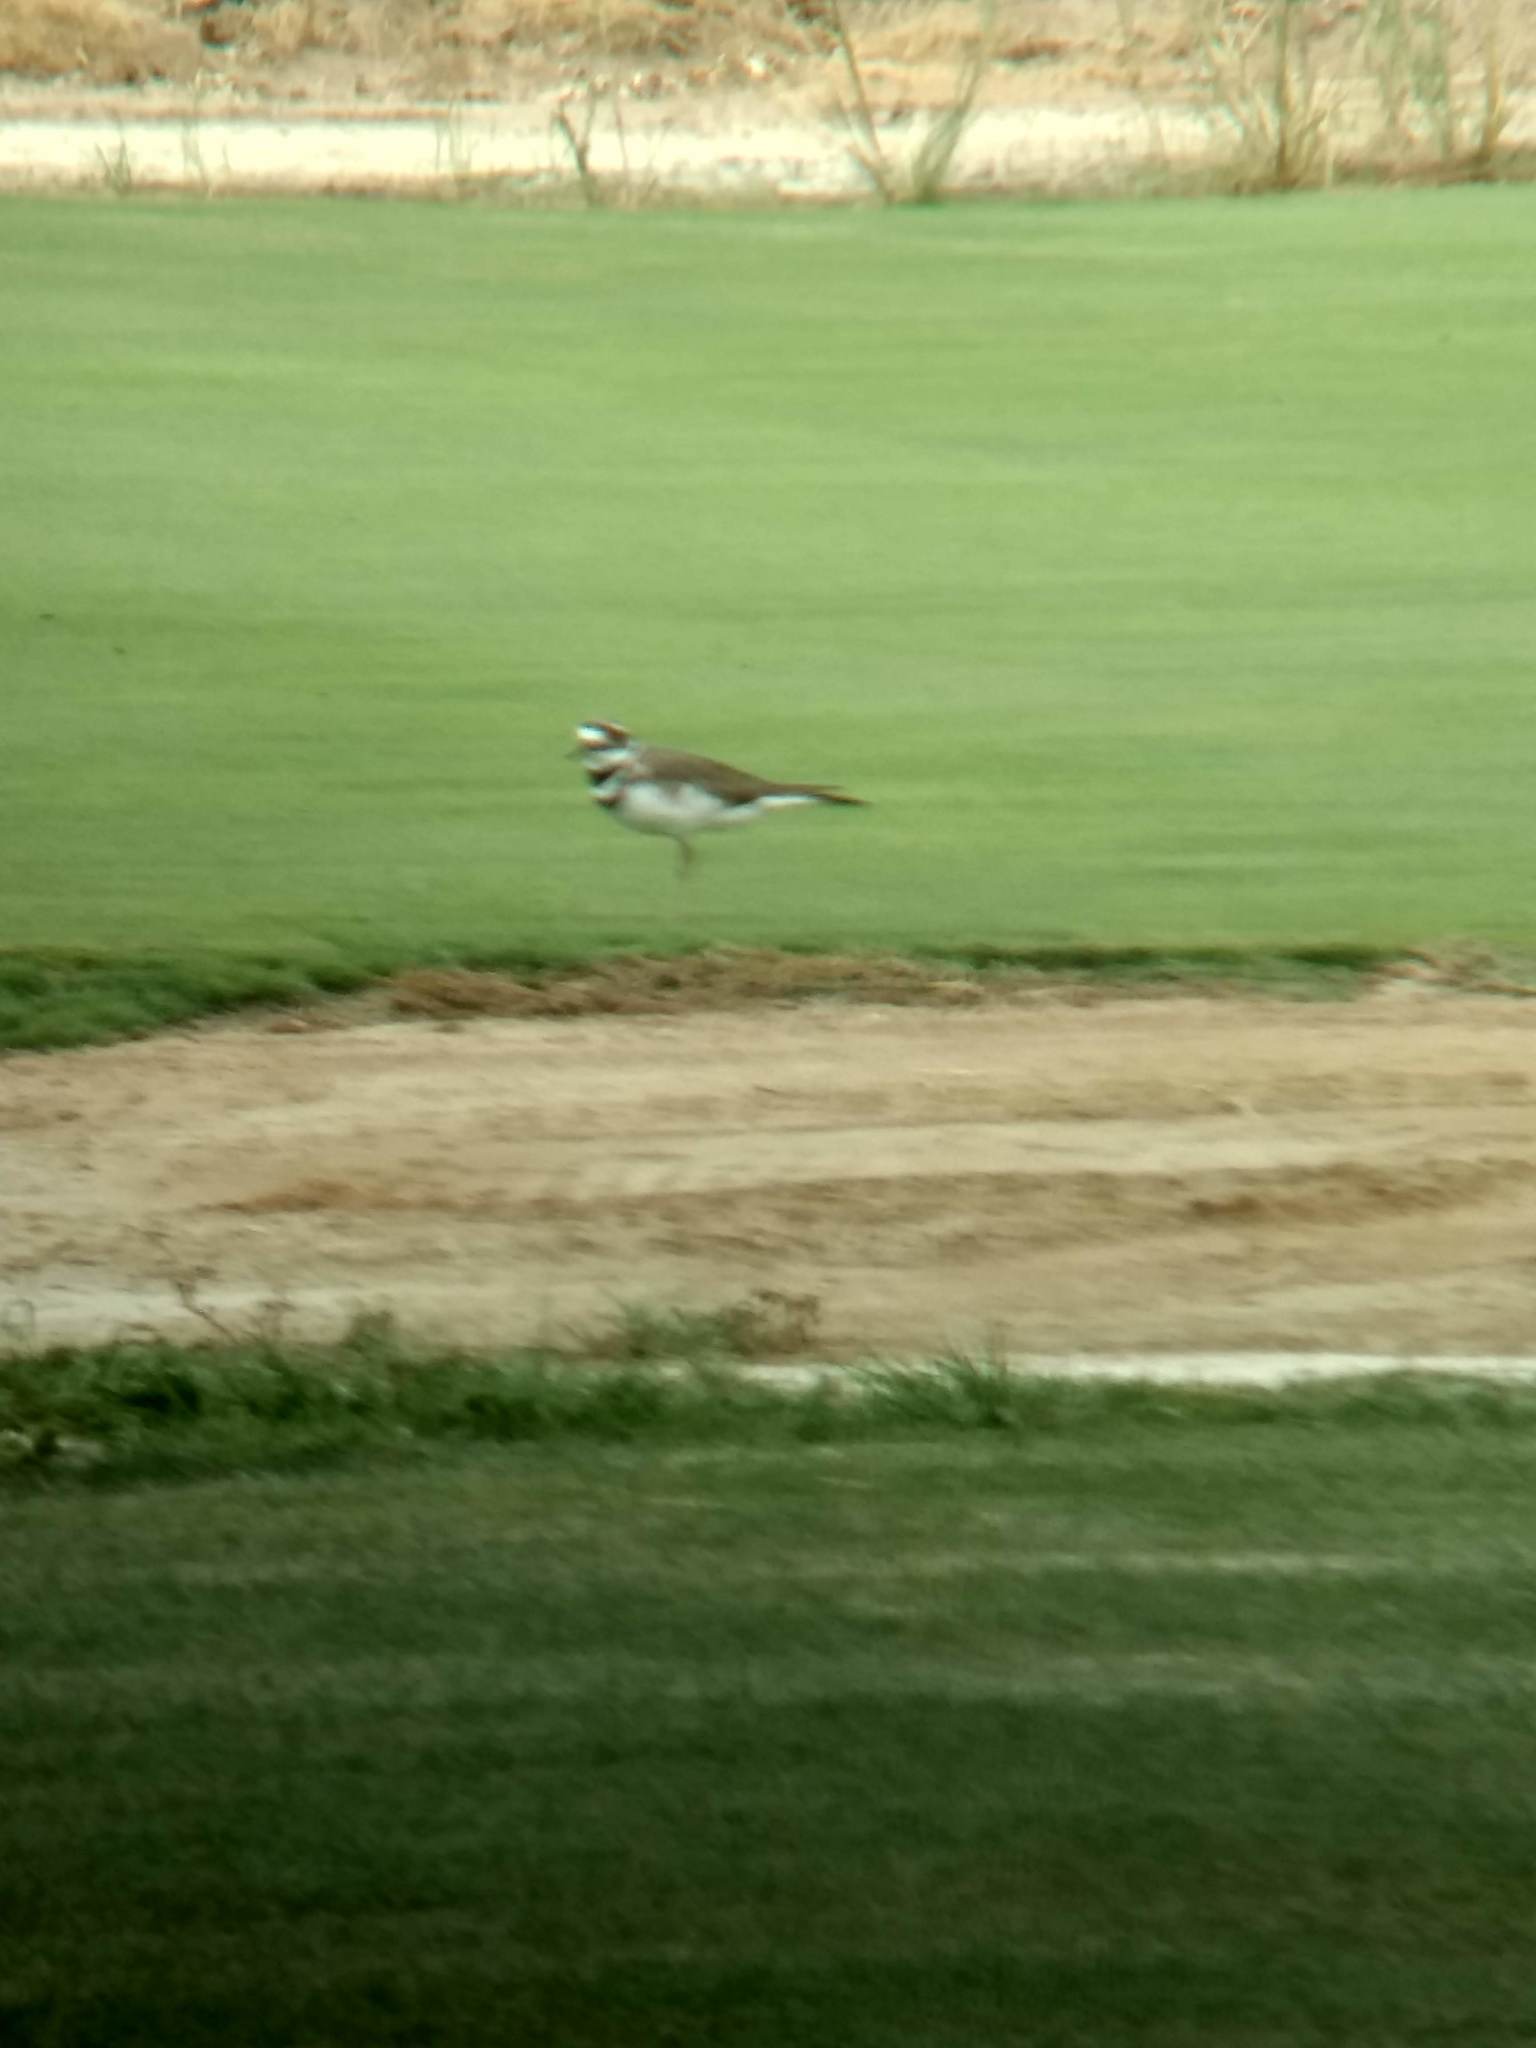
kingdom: Animalia
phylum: Chordata
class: Aves
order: Charadriiformes
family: Charadriidae
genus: Charadrius
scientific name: Charadrius vociferus
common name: Killdeer
